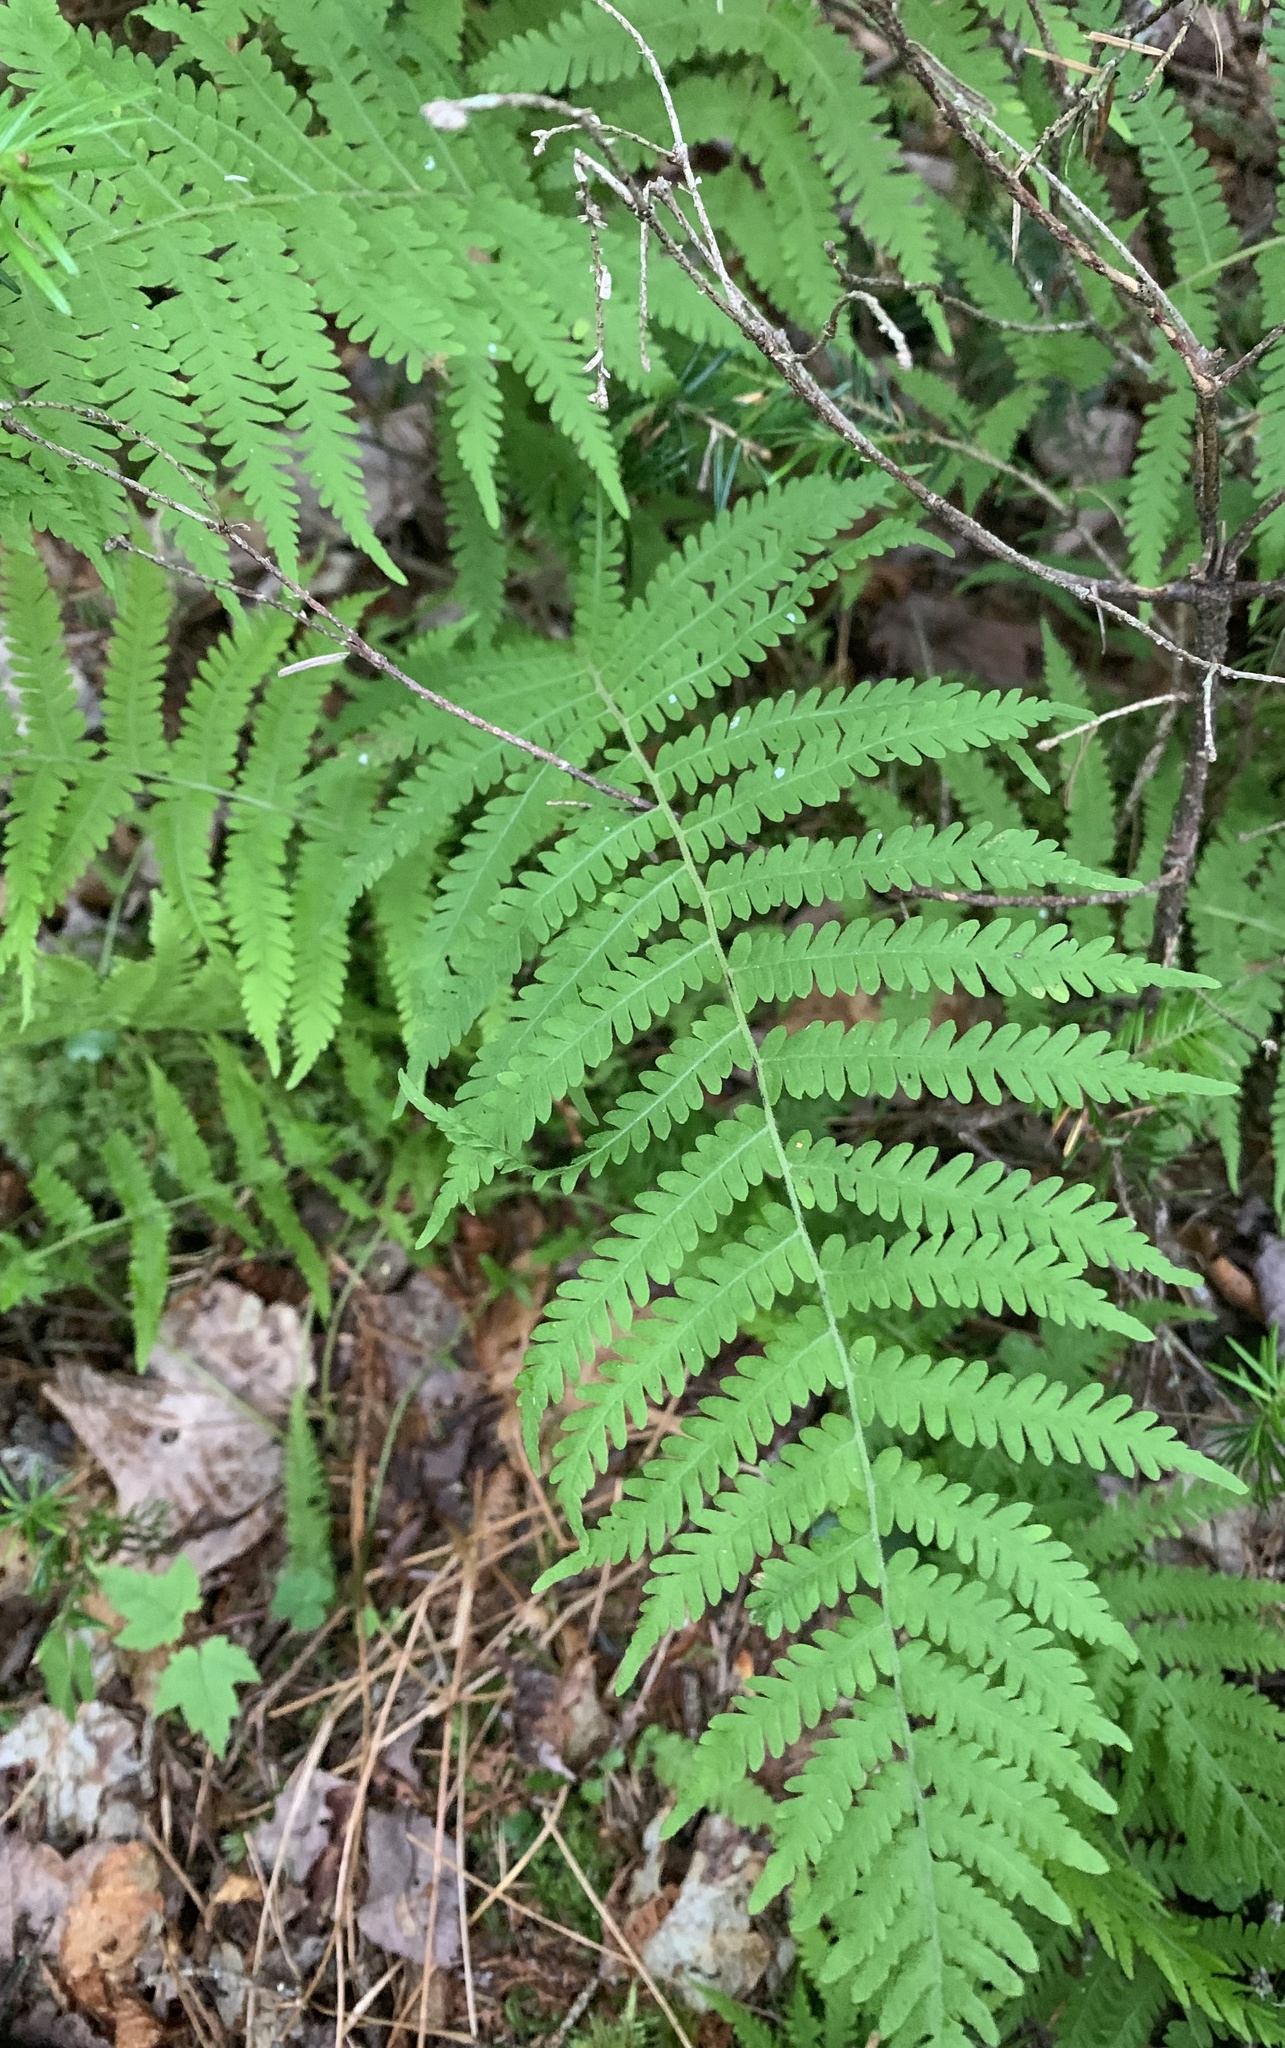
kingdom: Plantae
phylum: Tracheophyta
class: Polypodiopsida
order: Polypodiales
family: Thelypteridaceae
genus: Thelypteris
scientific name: Thelypteris palustris
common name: Marsh fern
